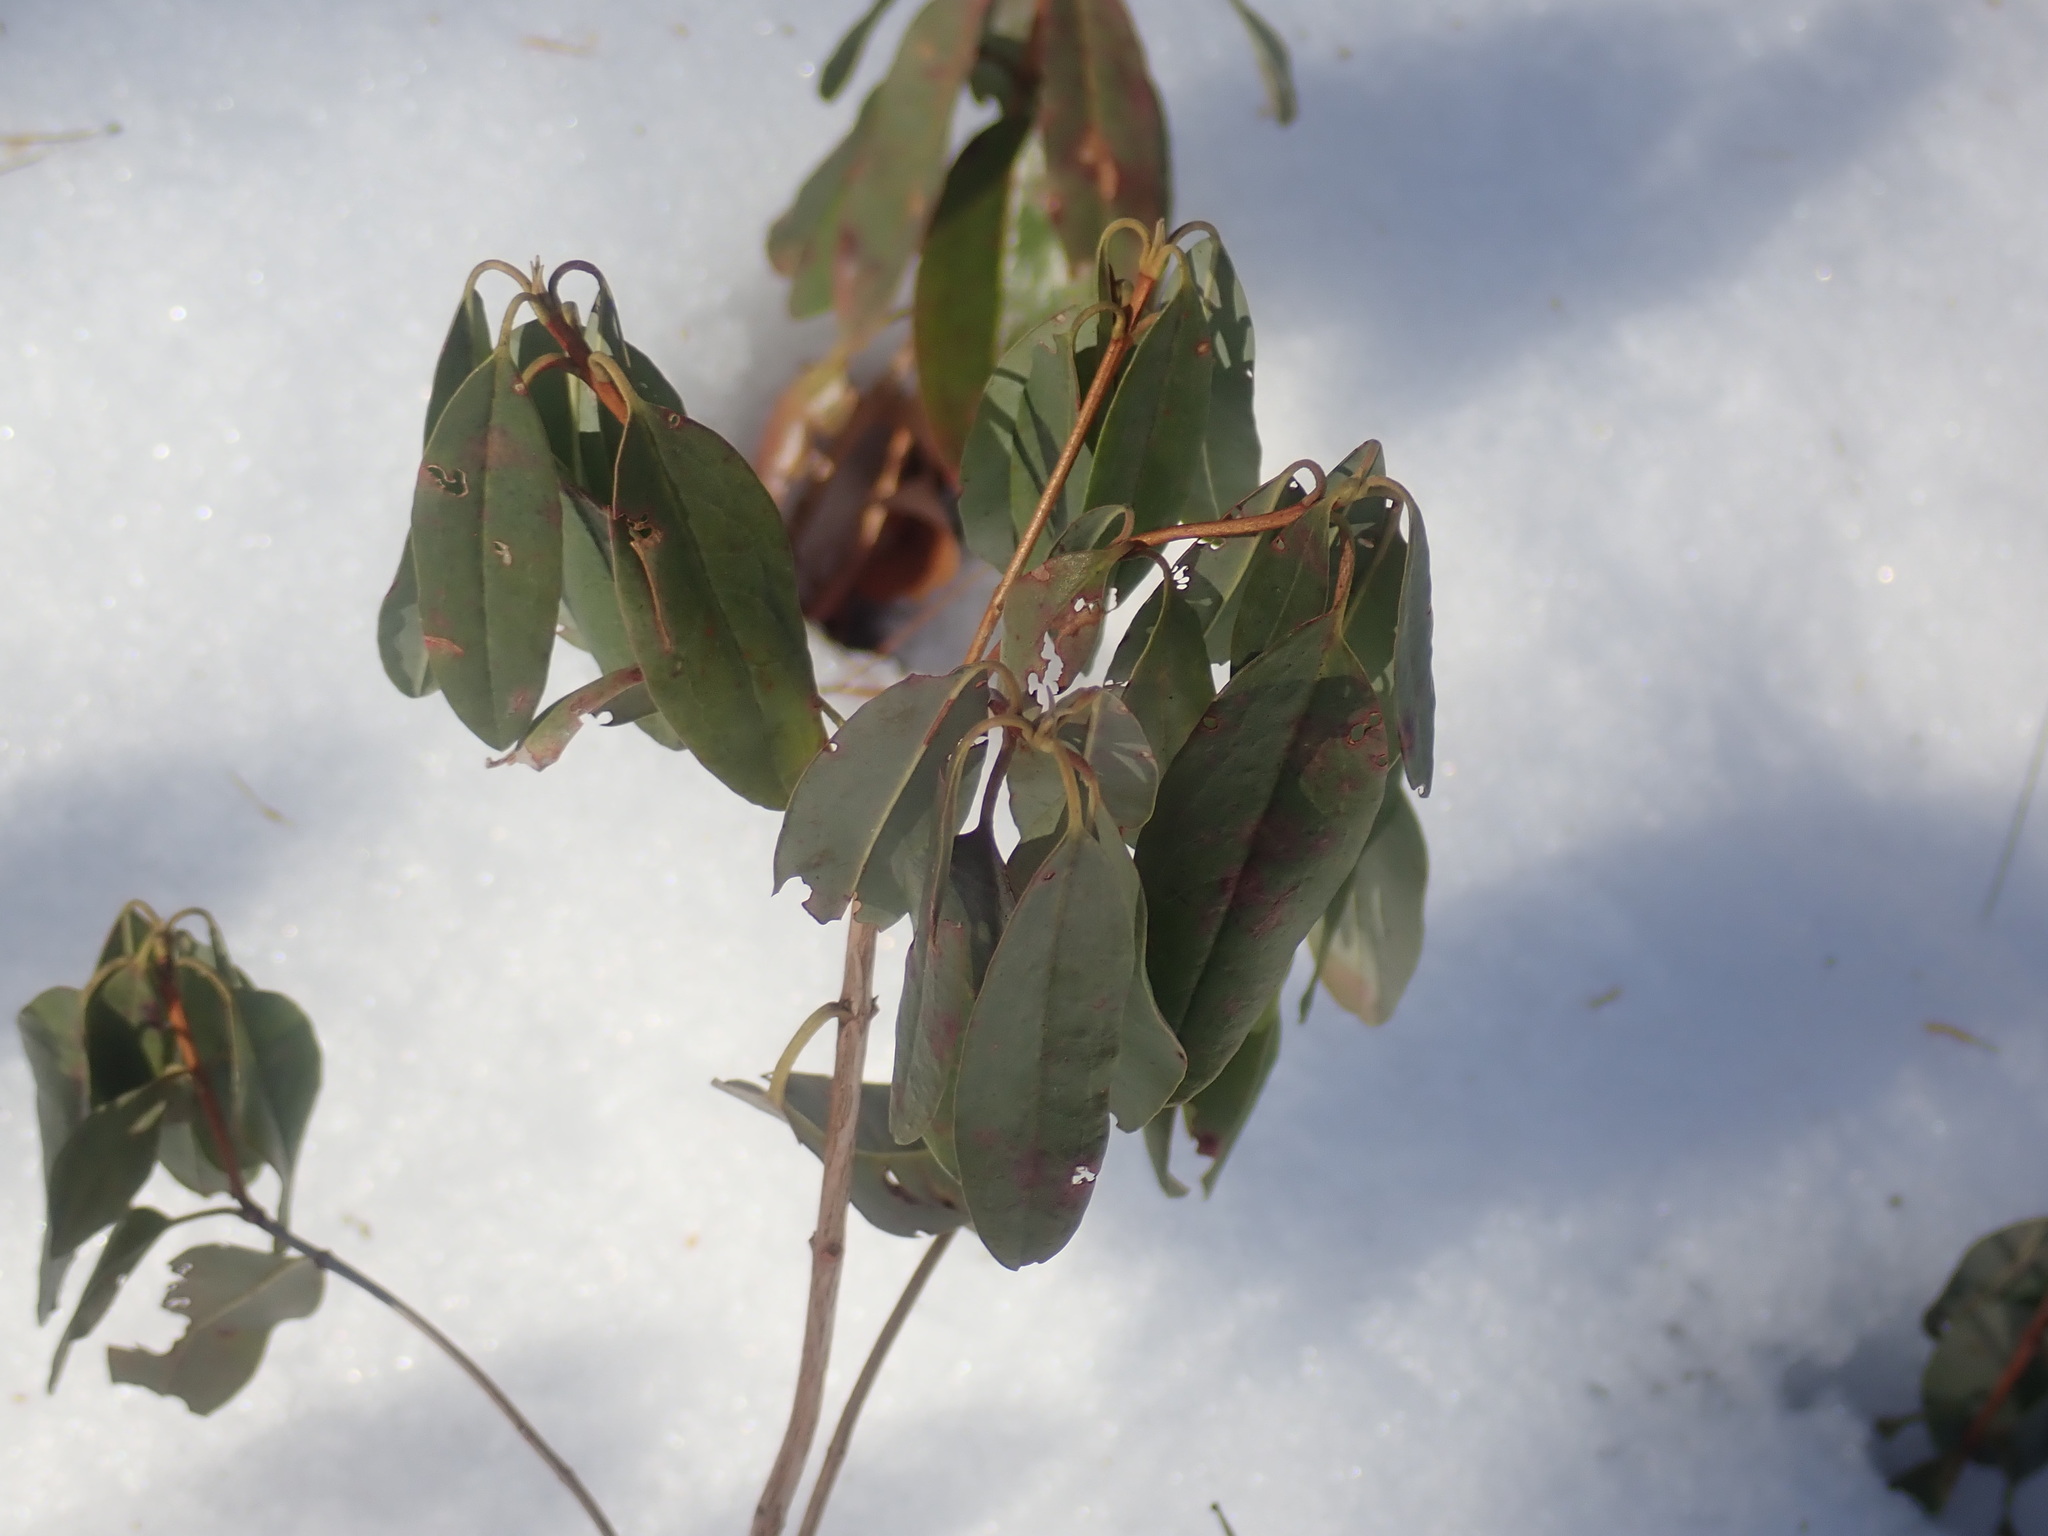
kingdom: Plantae
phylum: Tracheophyta
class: Magnoliopsida
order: Ericales
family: Ericaceae
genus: Kalmia
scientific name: Kalmia angustifolia
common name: Sheep-laurel
